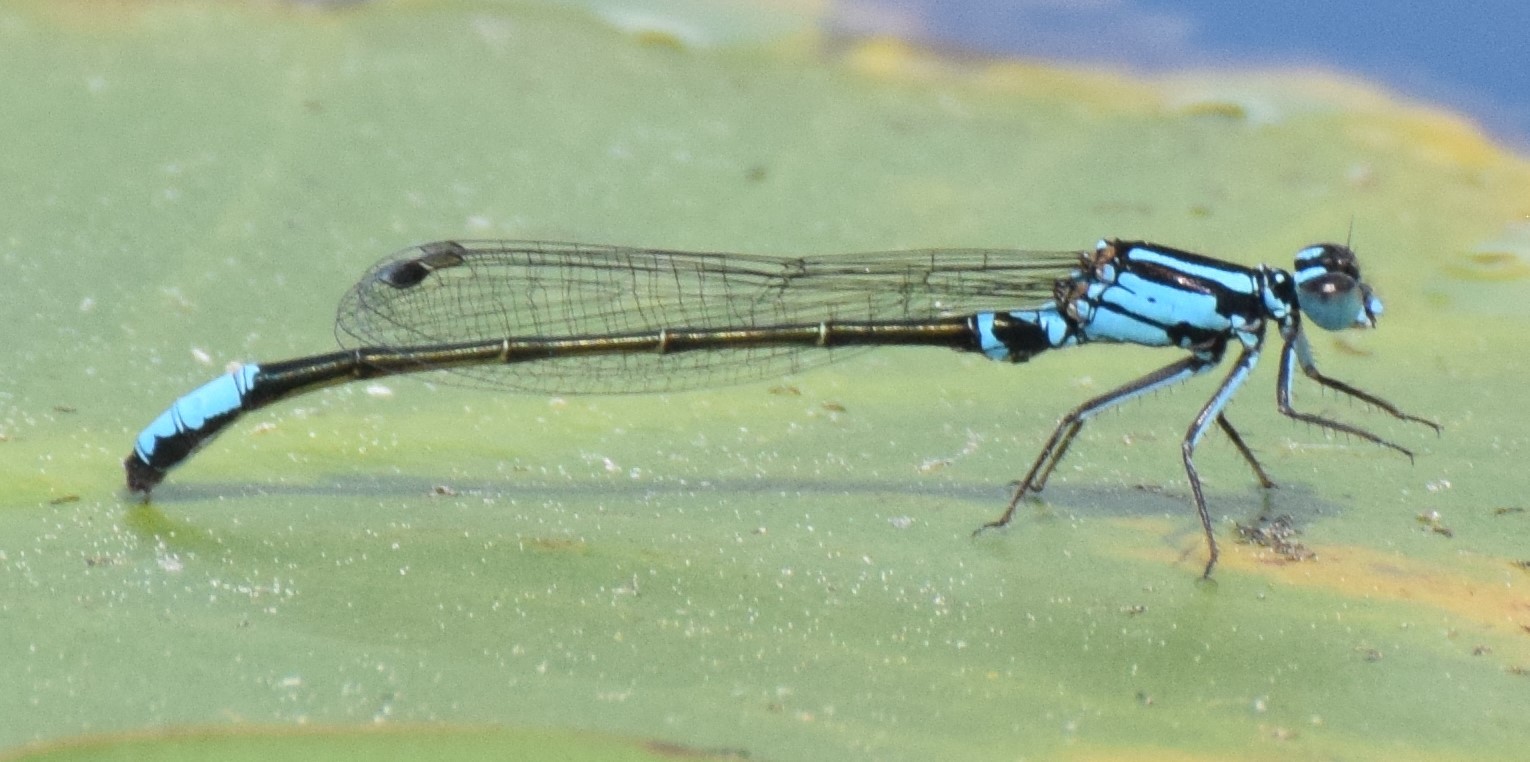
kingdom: Animalia
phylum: Arthropoda
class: Insecta
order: Odonata
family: Coenagrionidae
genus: Ischnura
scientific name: Ischnura kellicotti
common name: Lilypad forktail
